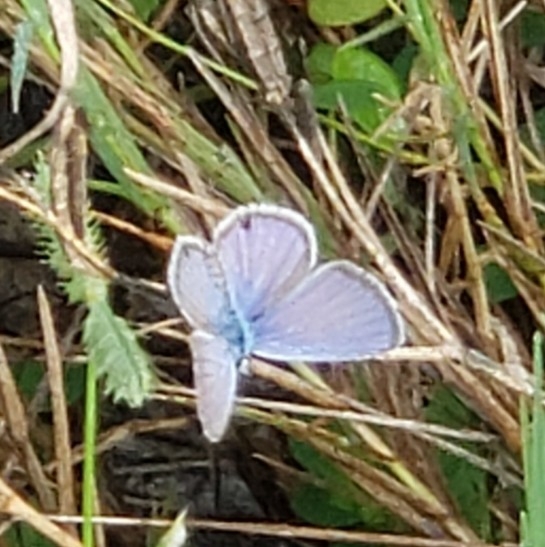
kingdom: Animalia
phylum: Arthropoda
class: Insecta
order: Lepidoptera
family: Lycaenidae
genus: Hemiargus
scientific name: Hemiargus ceraunus
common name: Ceraunus blue
